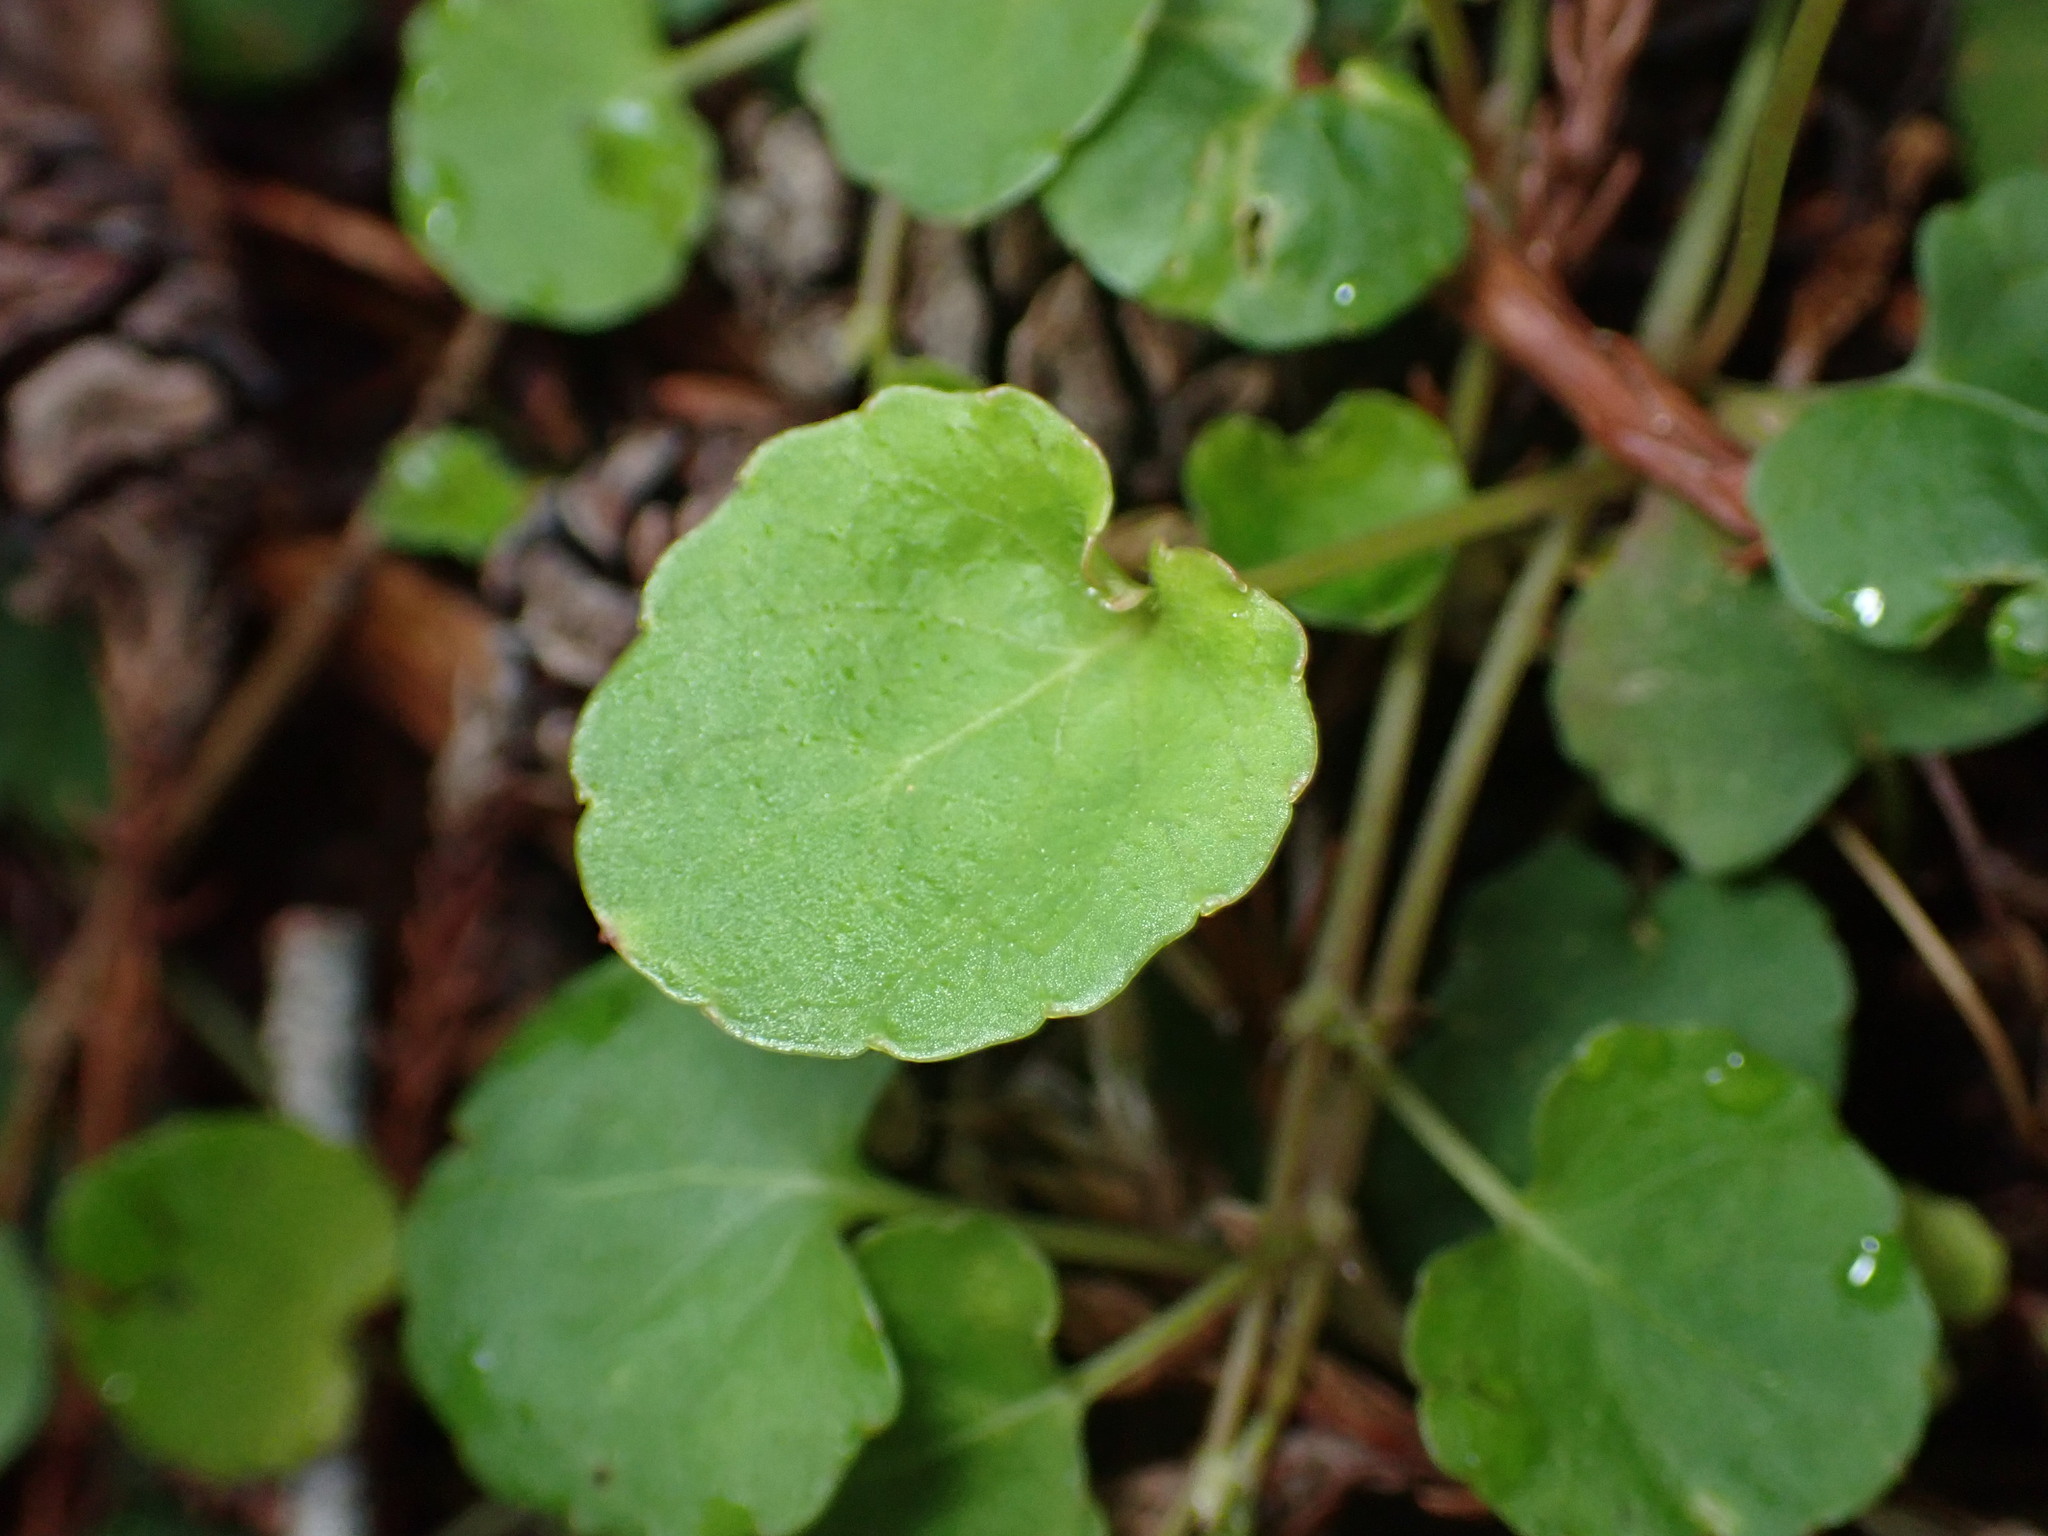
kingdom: Plantae
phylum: Tracheophyta
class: Magnoliopsida
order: Malpighiales
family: Violaceae
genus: Viola
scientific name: Viola sempervirens
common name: Evergreen violet
